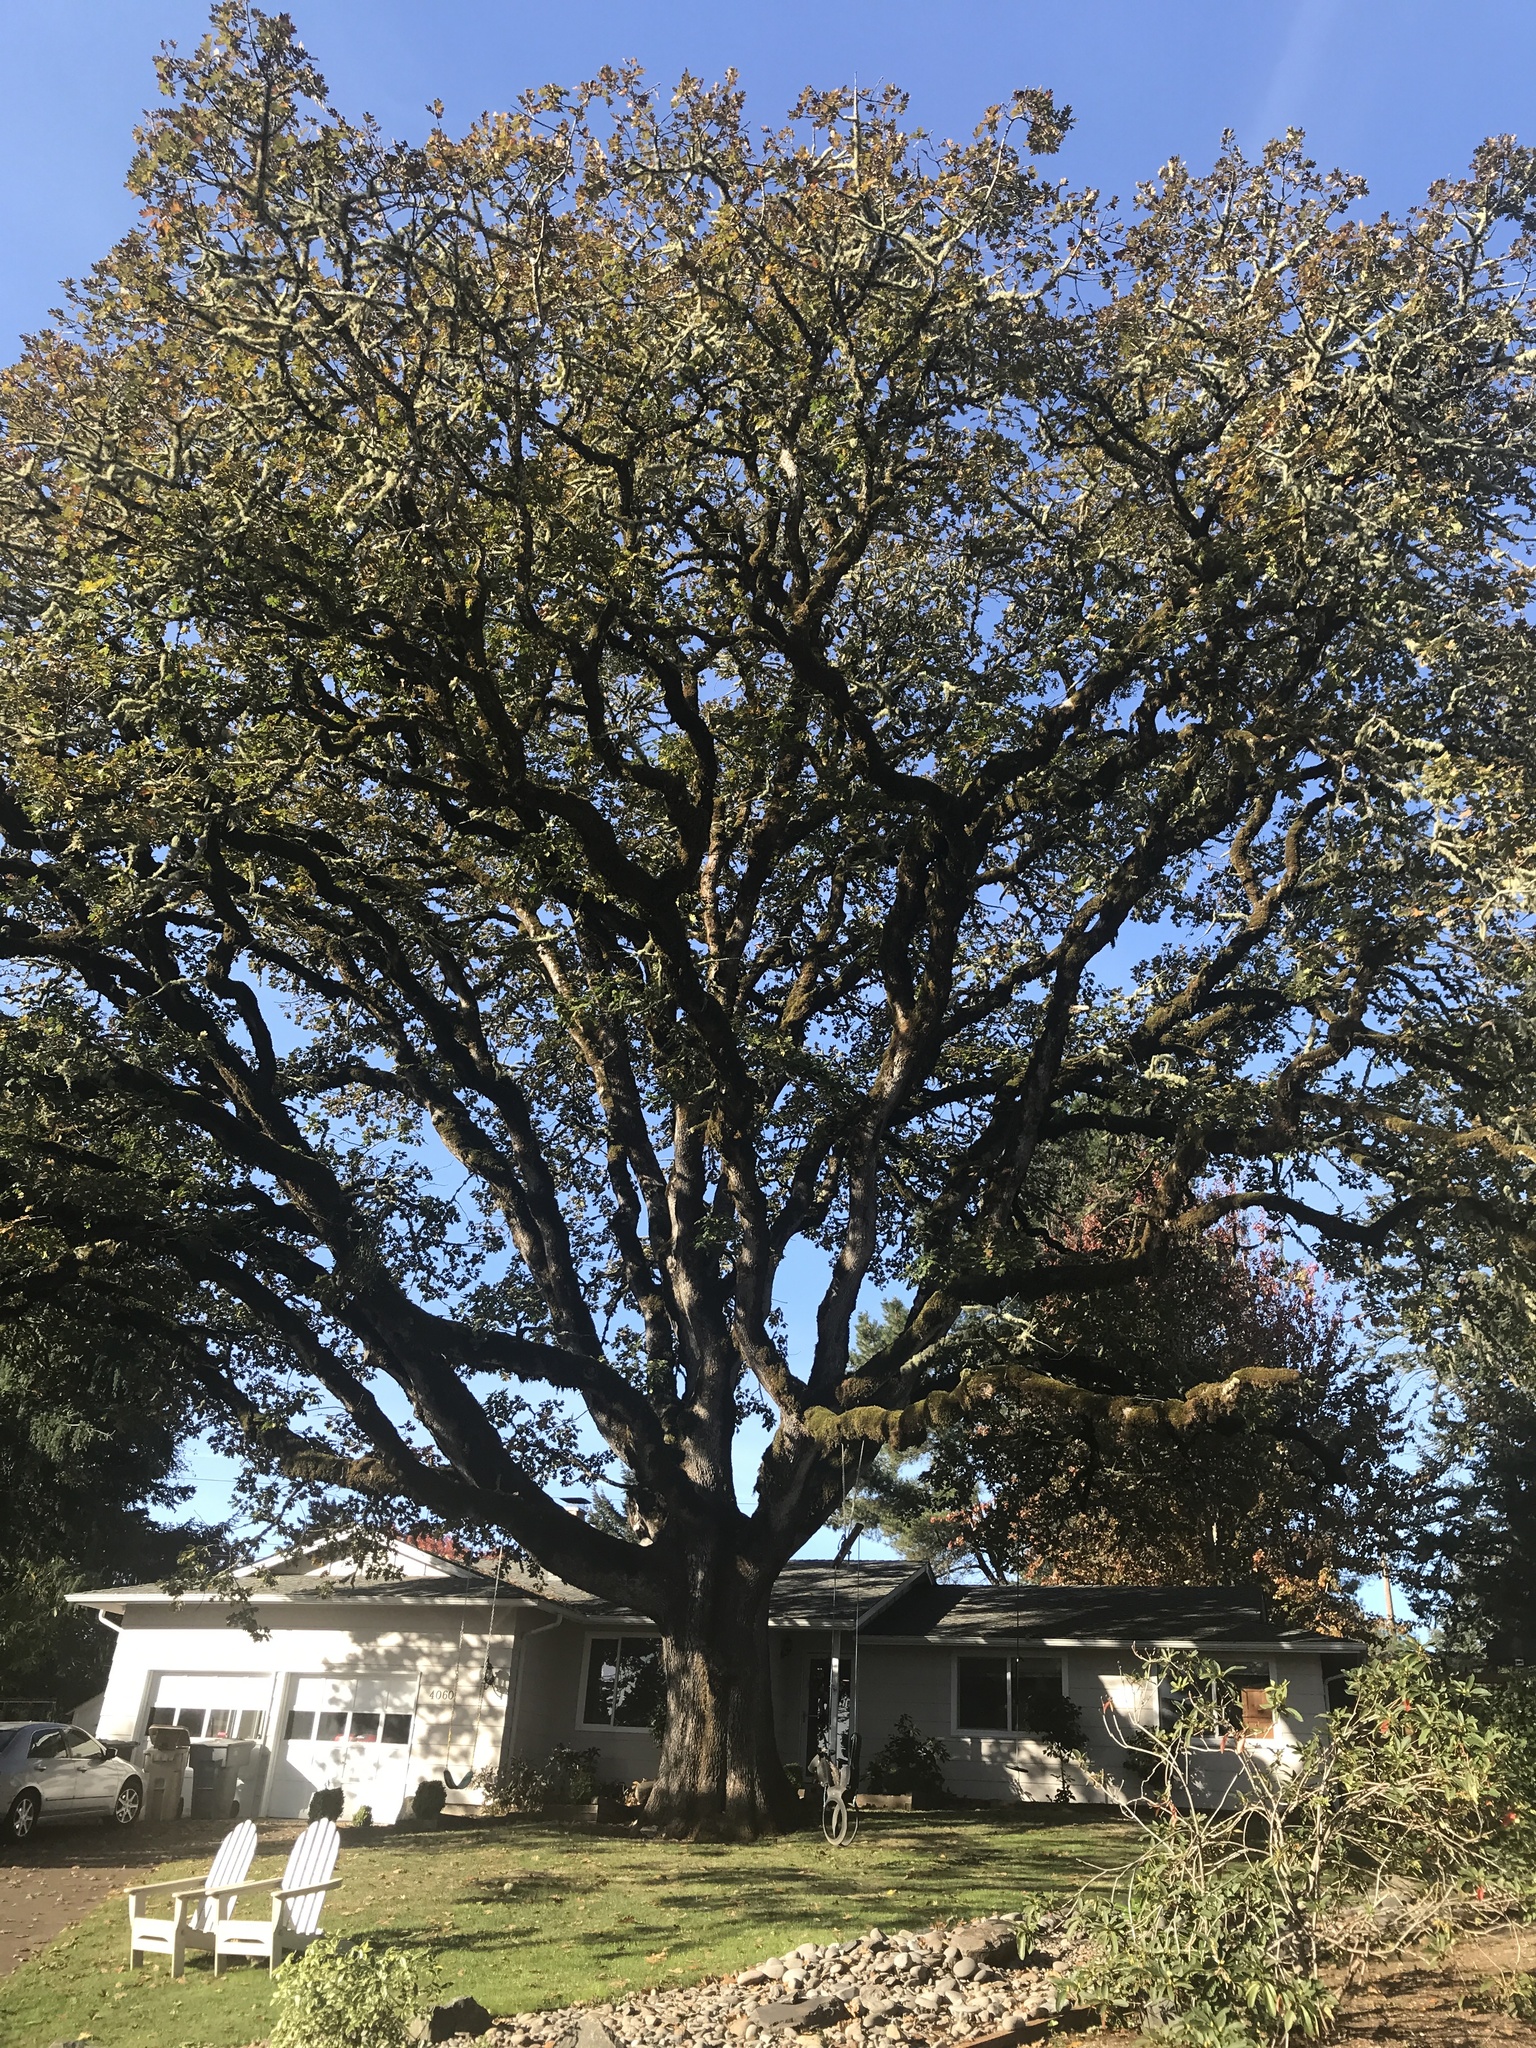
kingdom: Plantae
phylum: Tracheophyta
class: Magnoliopsida
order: Fagales
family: Fagaceae
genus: Quercus
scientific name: Quercus garryana
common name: Garry oak
